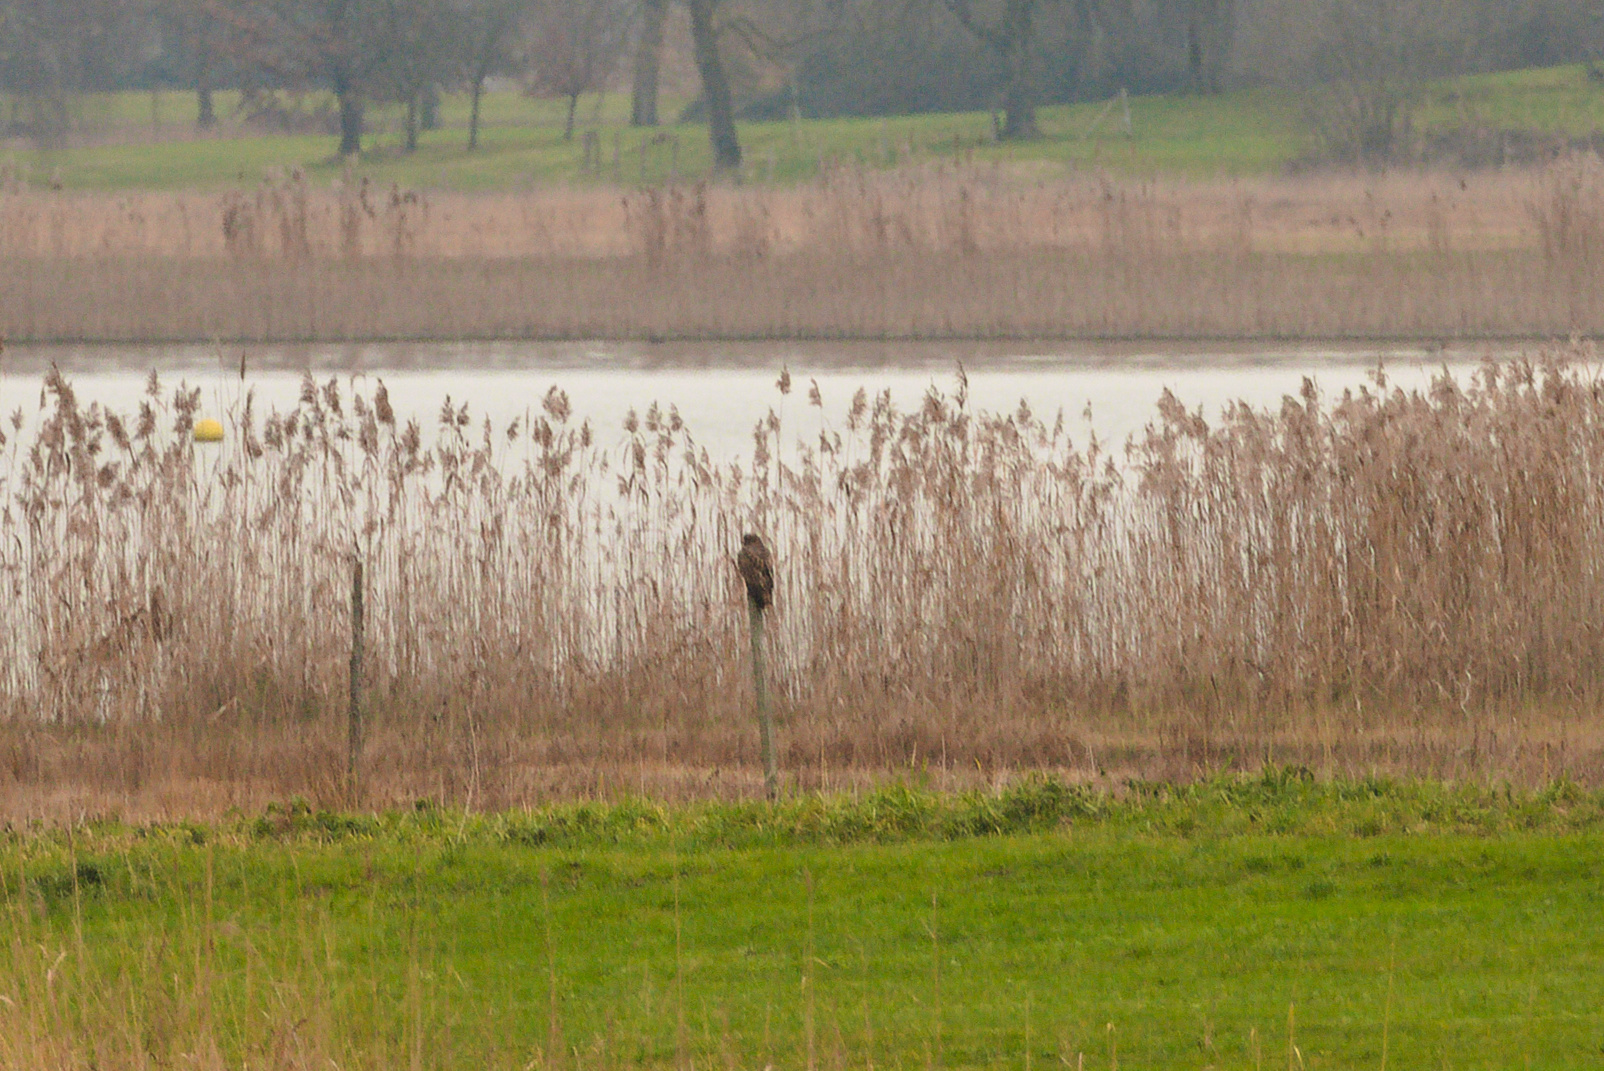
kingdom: Animalia
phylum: Chordata
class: Aves
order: Accipitriformes
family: Accipitridae
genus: Buteo
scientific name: Buteo buteo
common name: Common buzzard
